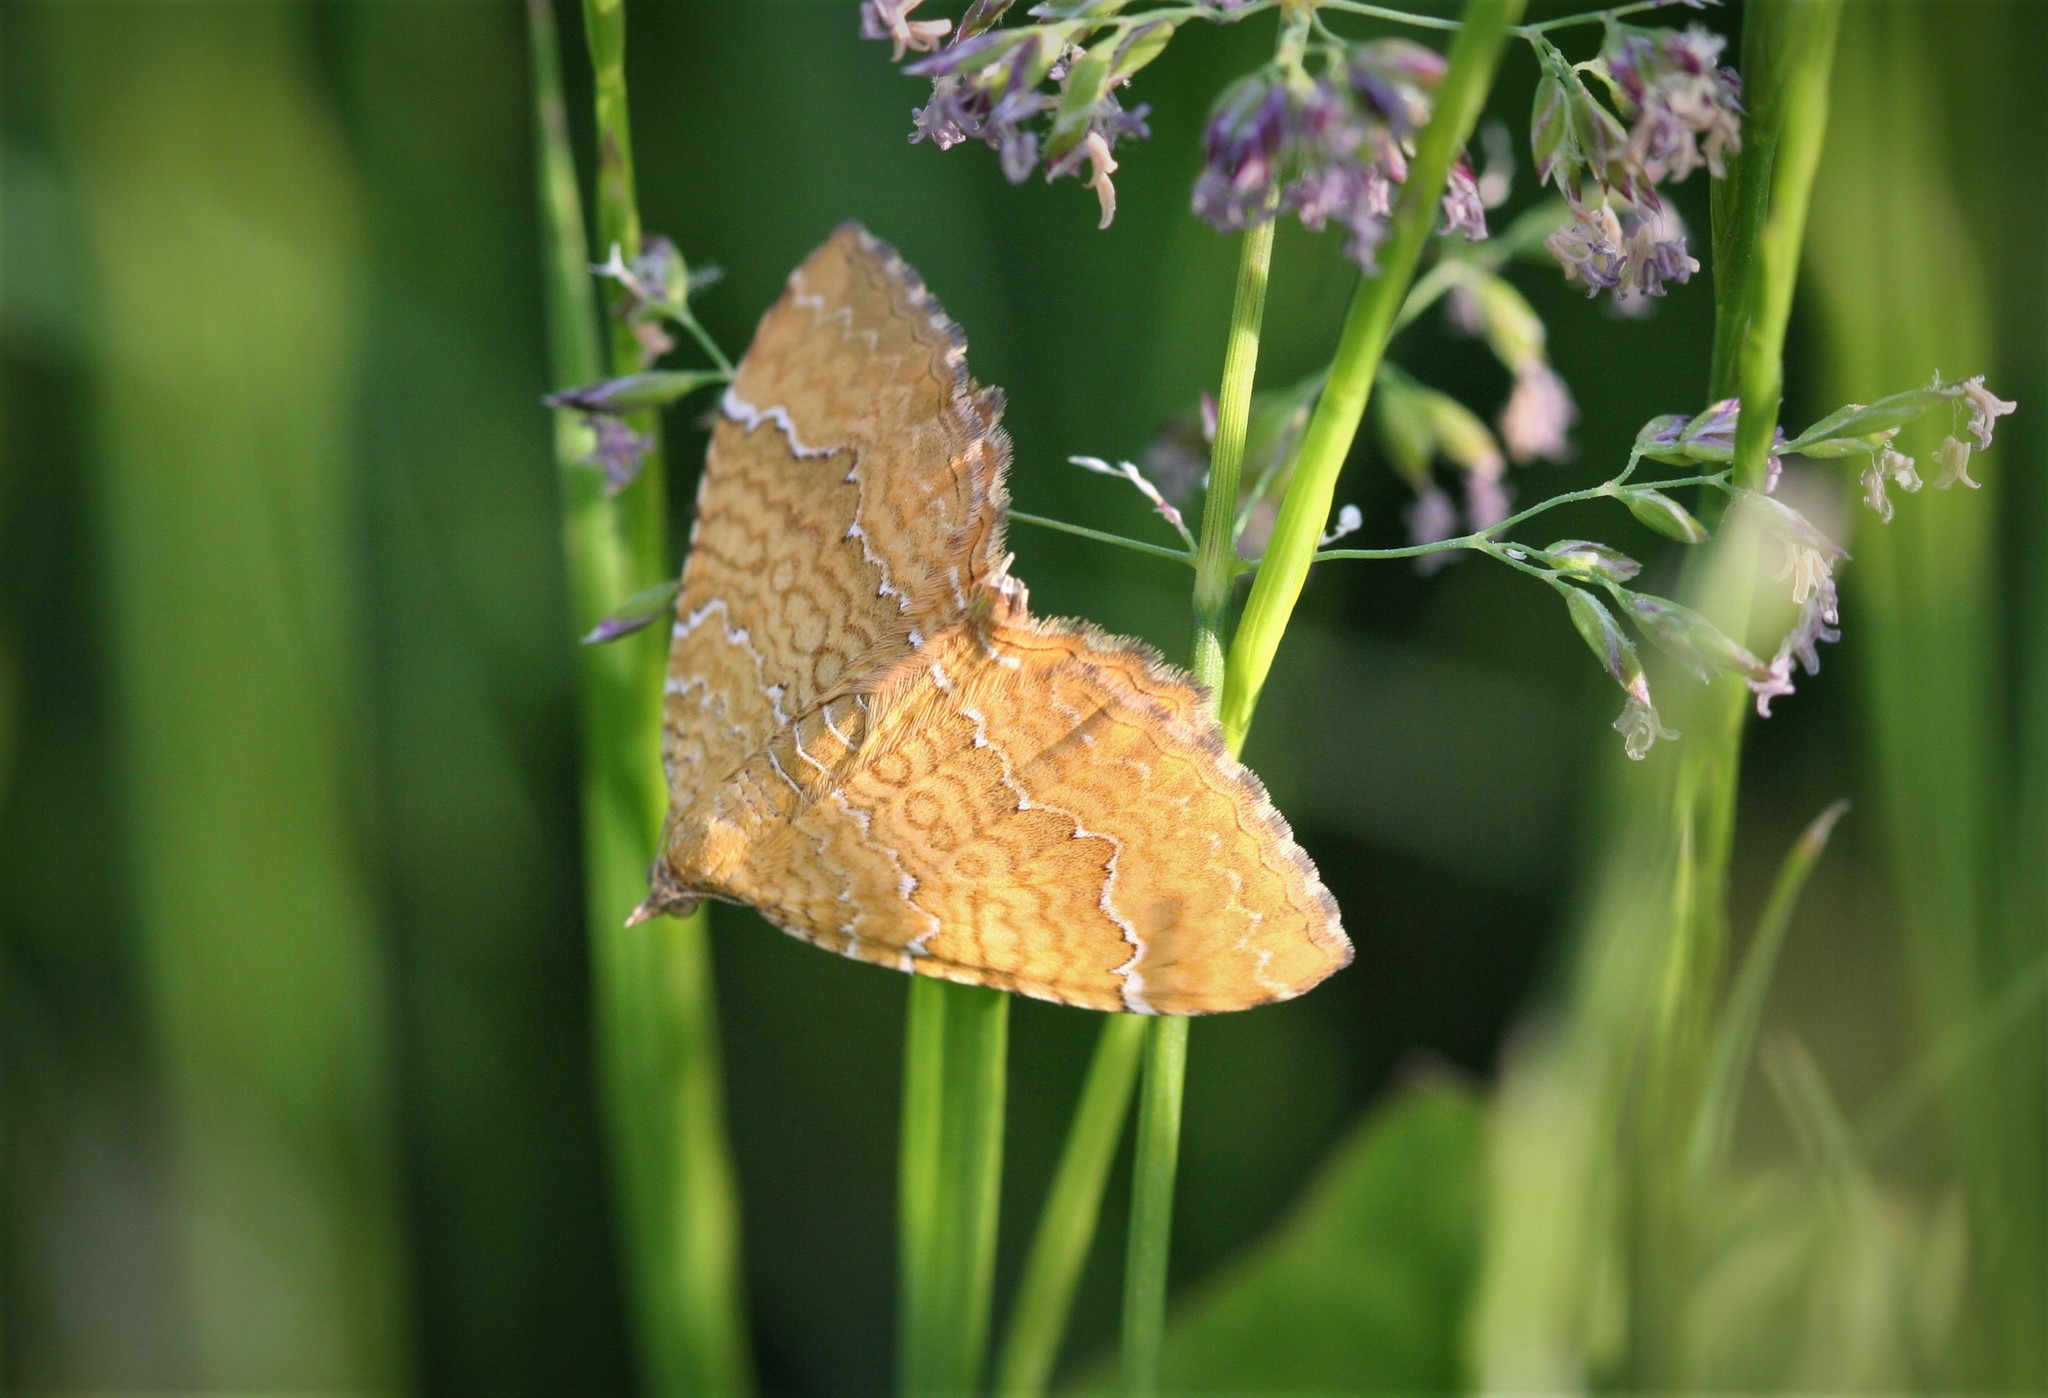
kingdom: Animalia
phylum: Arthropoda
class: Insecta
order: Lepidoptera
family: Geometridae
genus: Camptogramma
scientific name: Camptogramma bilineata
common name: Yellow shell
